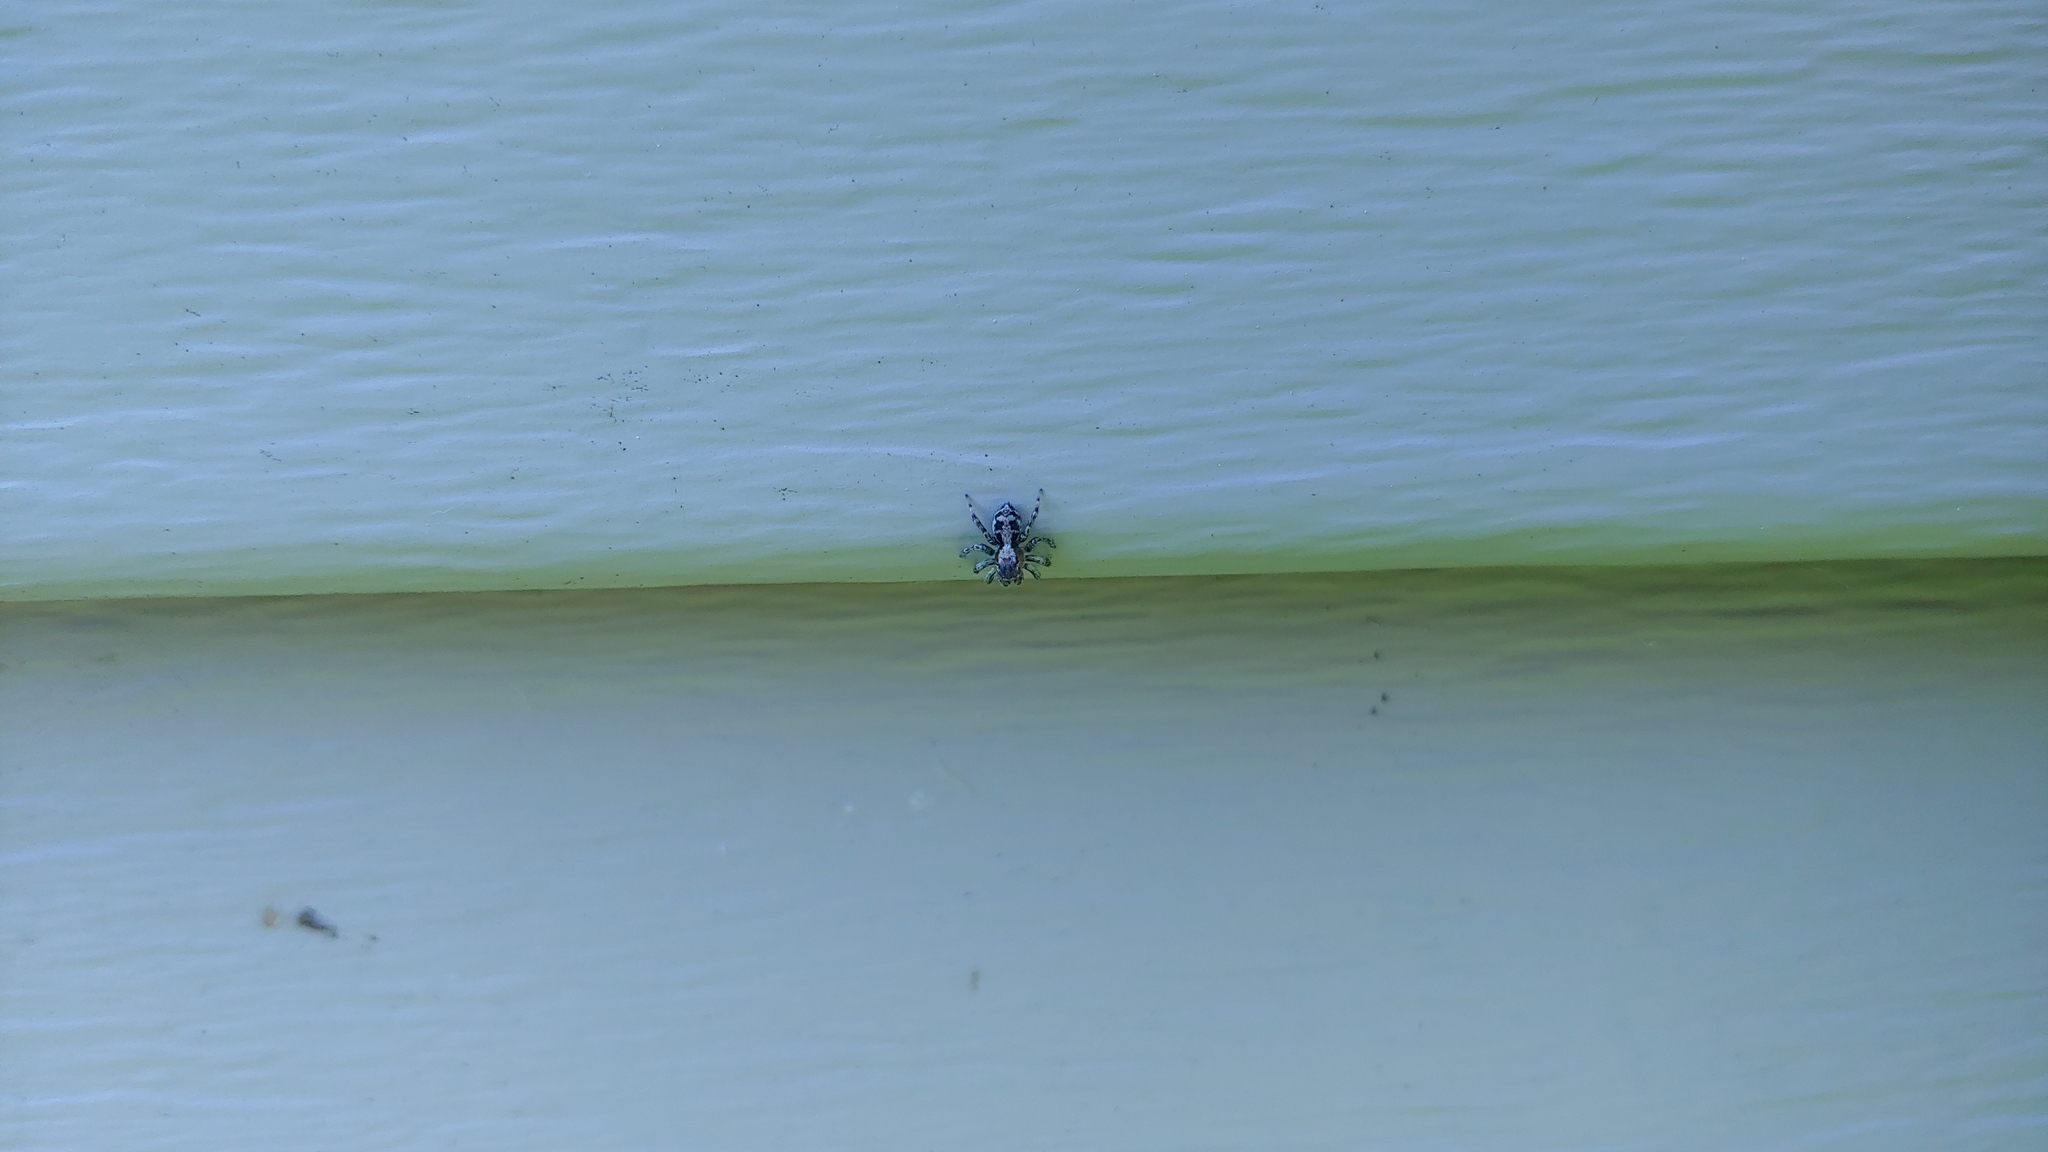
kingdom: Animalia
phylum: Arthropoda
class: Arachnida
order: Araneae
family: Salticidae
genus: Naphrys
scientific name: Naphrys pulex
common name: Flea jumping spider
